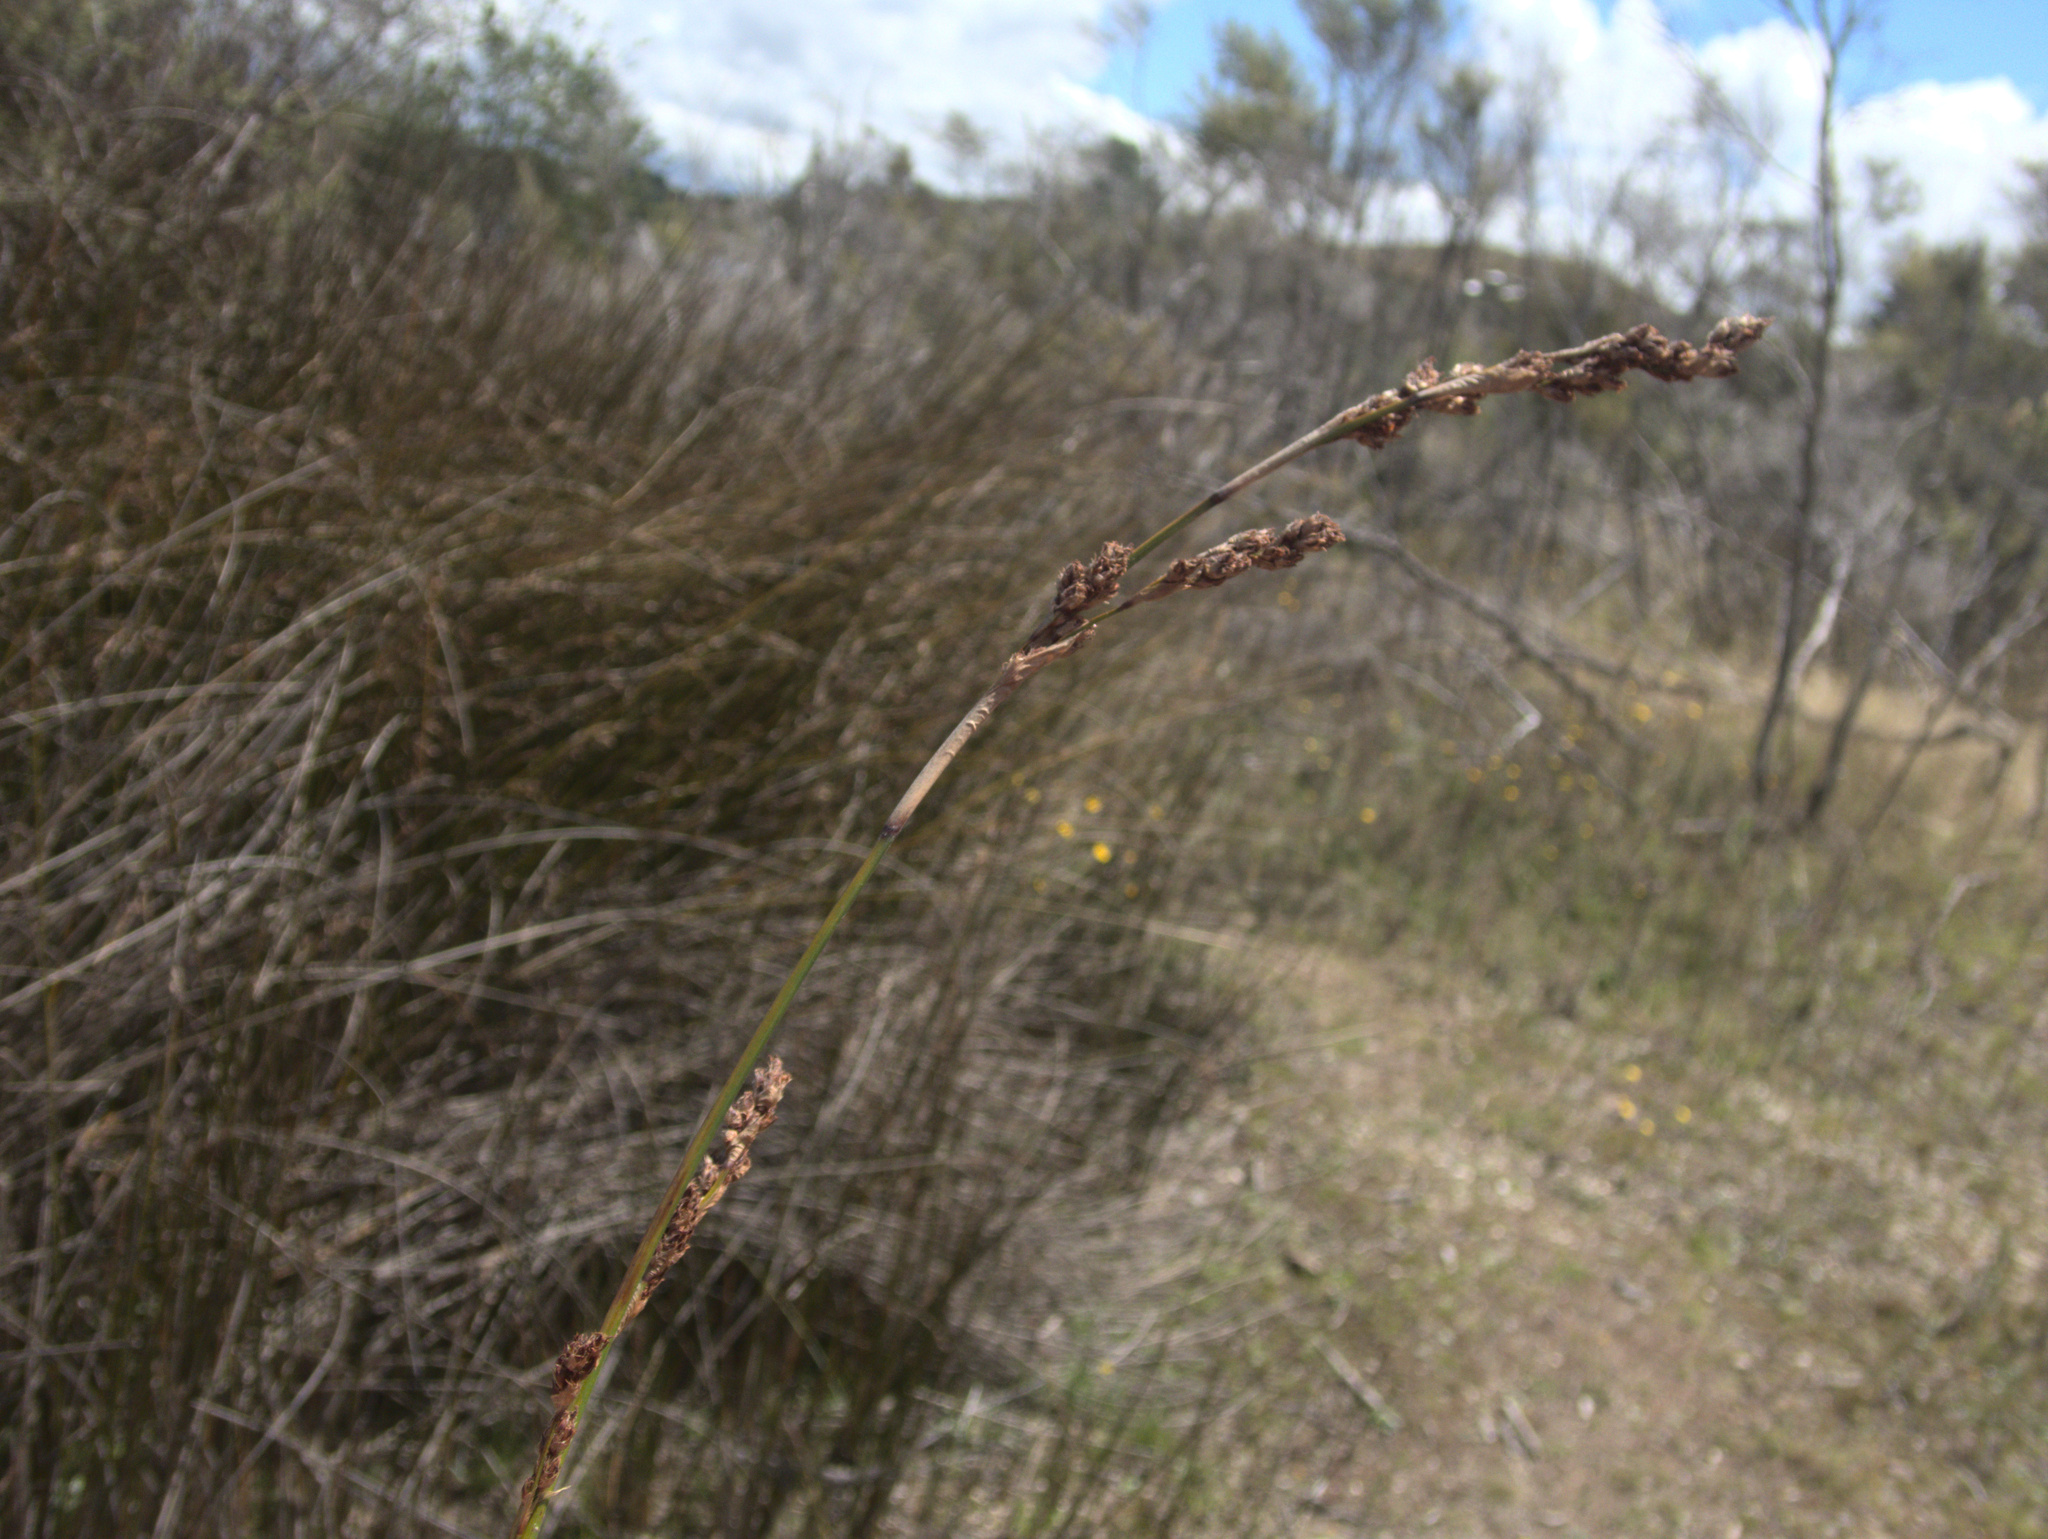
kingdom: Plantae
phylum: Tracheophyta
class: Liliopsida
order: Poales
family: Cyperaceae
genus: Machaerina
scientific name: Machaerina rubiginosa
